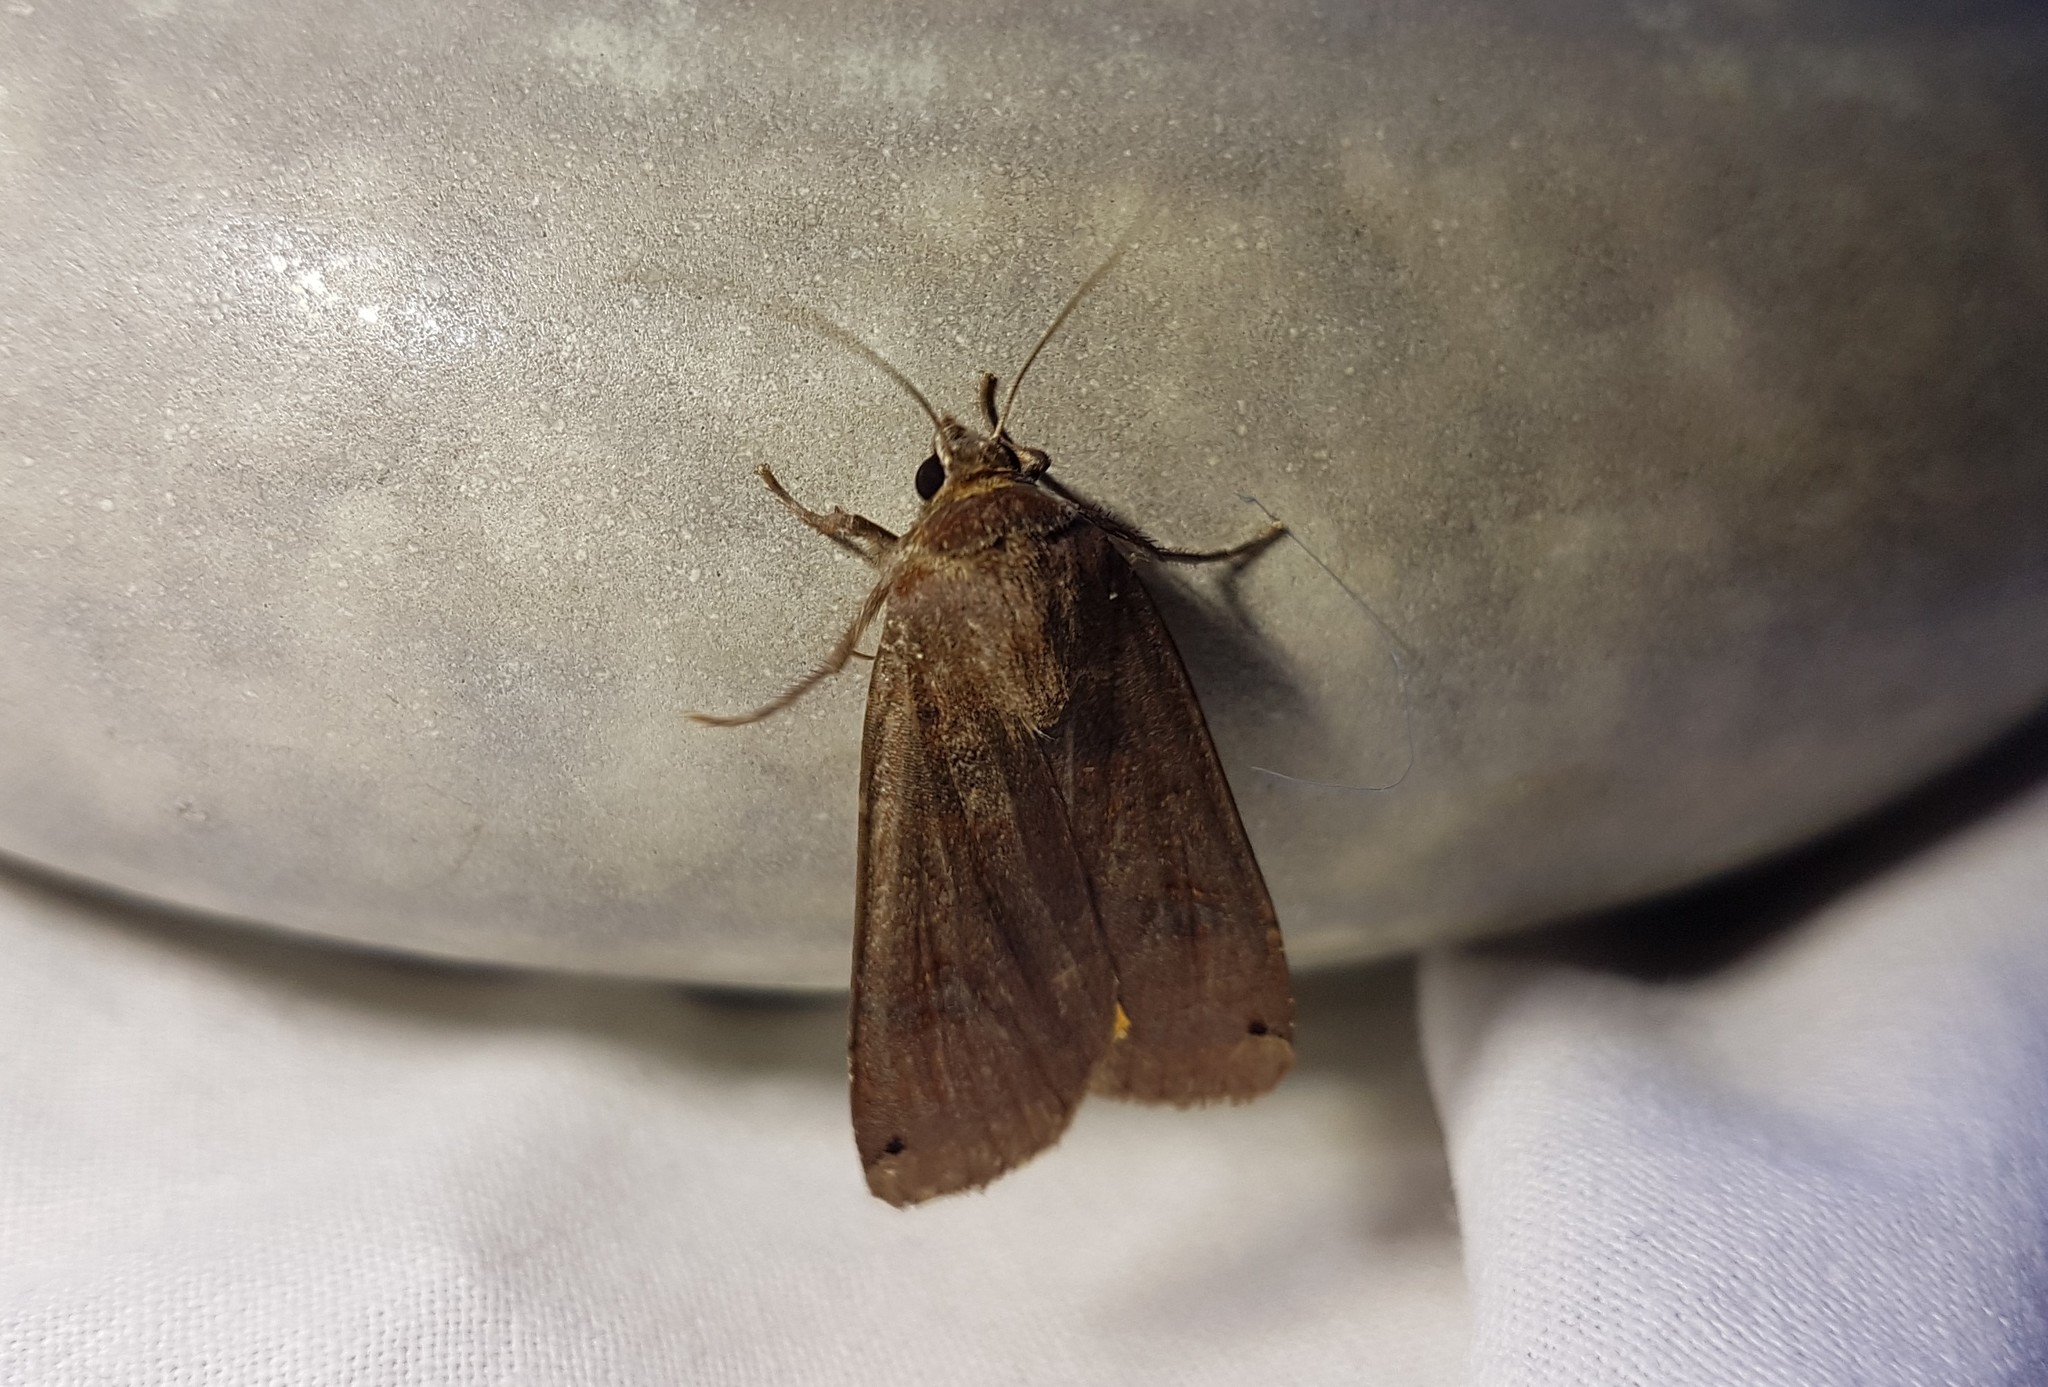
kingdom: Animalia
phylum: Arthropoda
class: Insecta
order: Lepidoptera
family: Noctuidae
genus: Noctua
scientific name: Noctua pronuba
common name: Large yellow underwing
